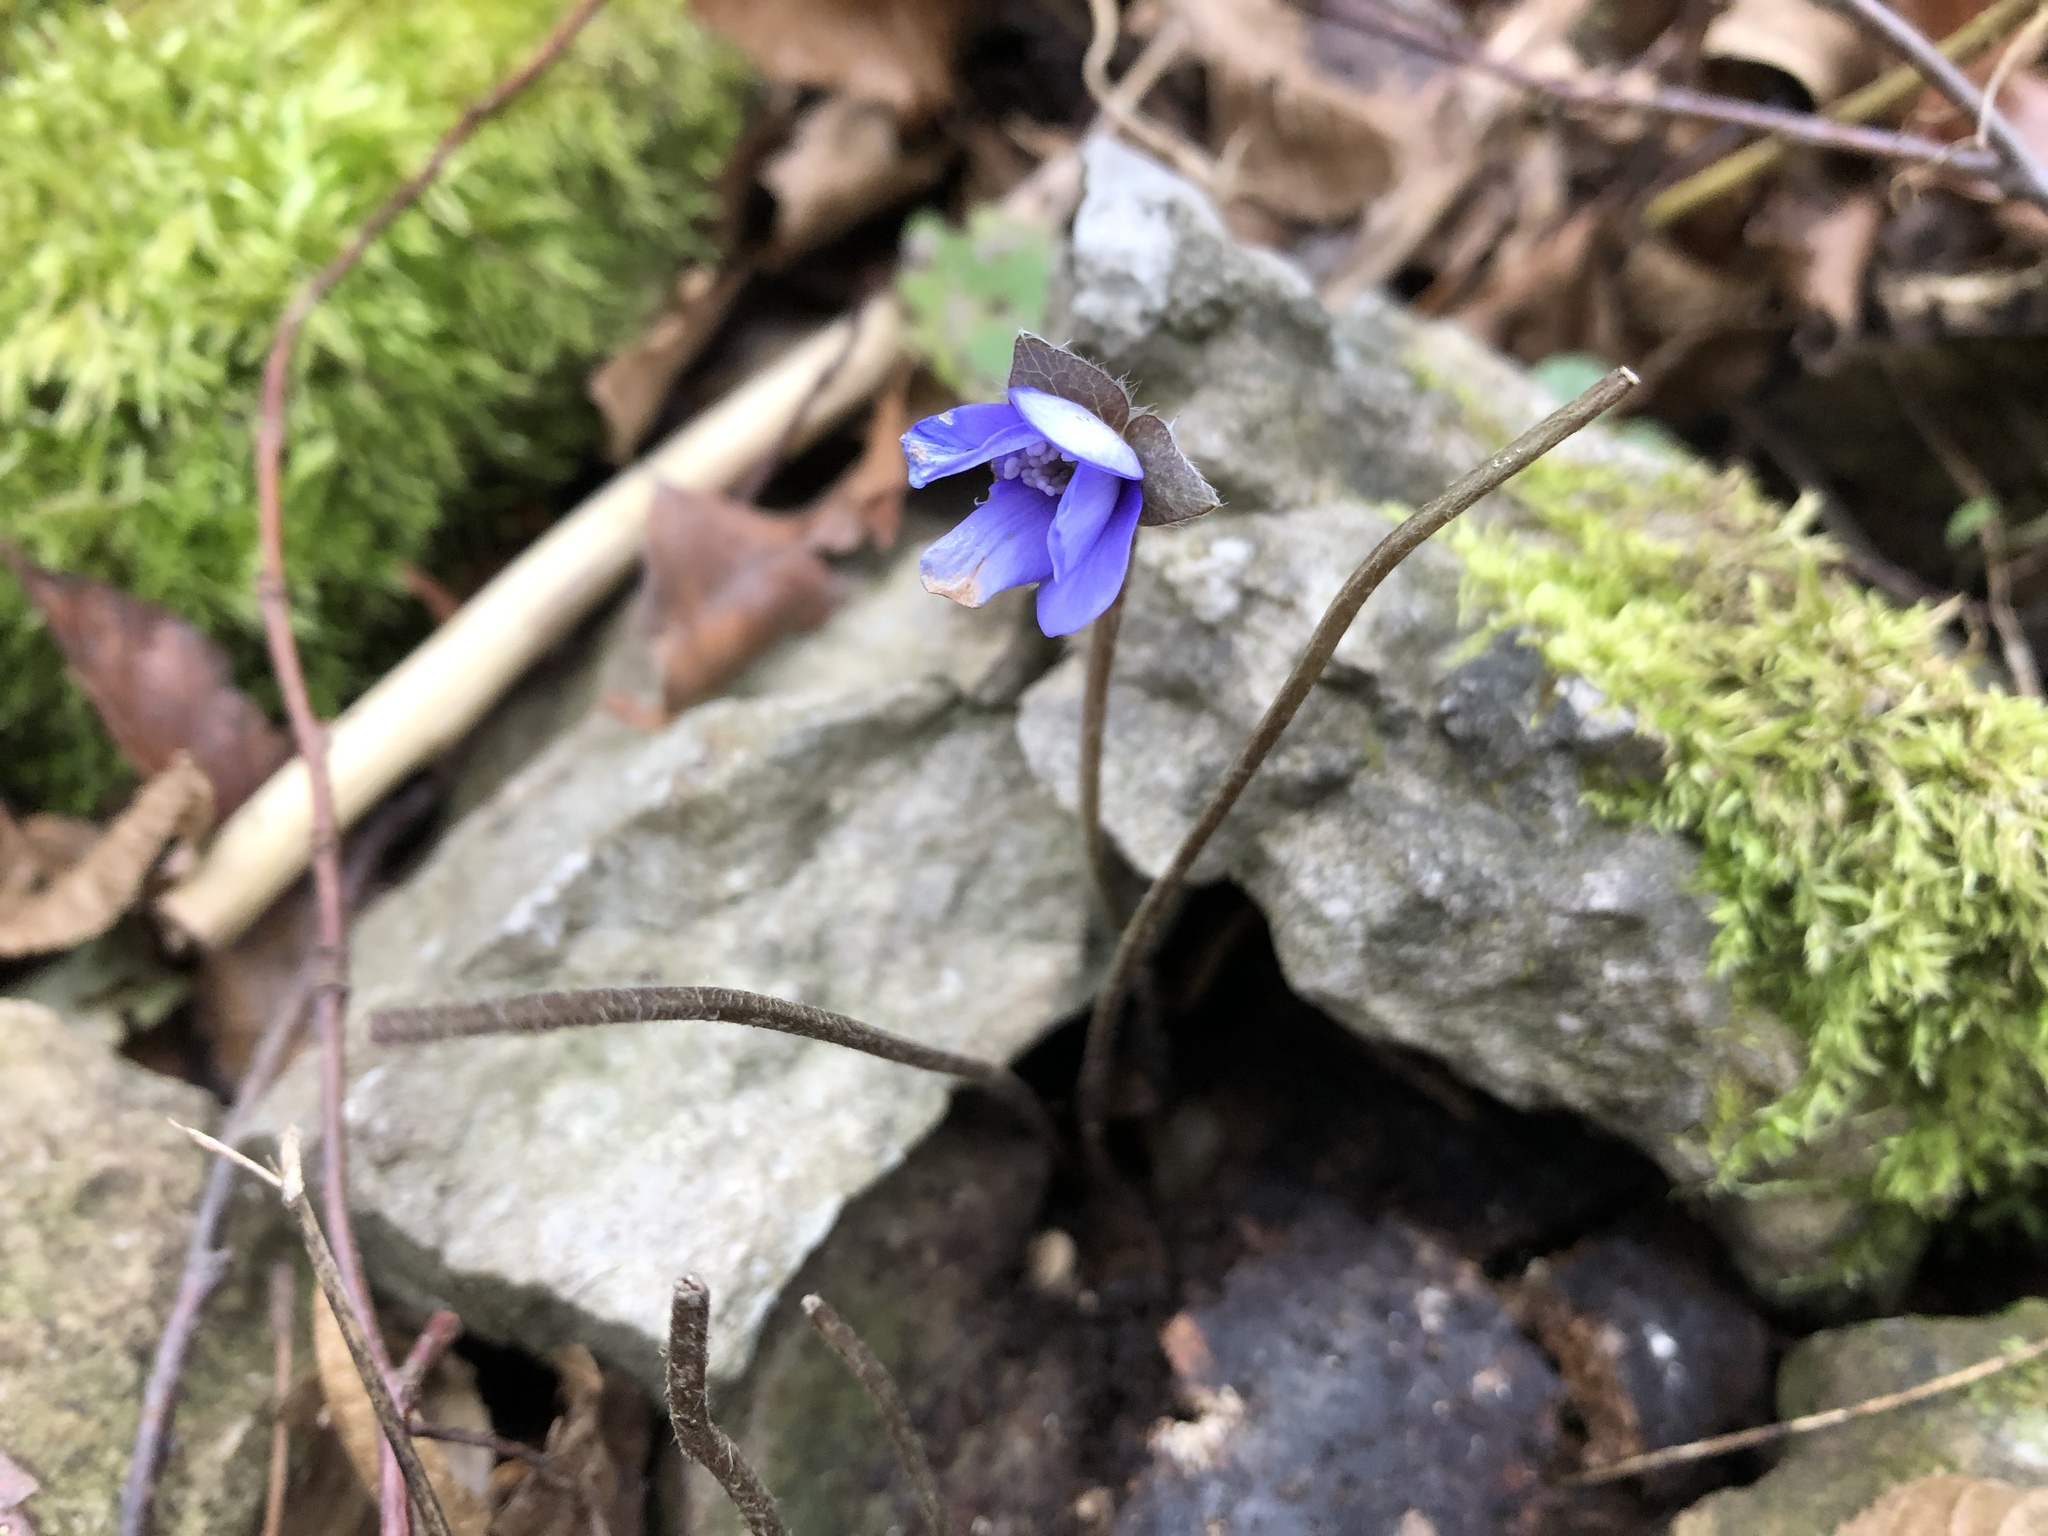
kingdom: Plantae
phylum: Tracheophyta
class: Magnoliopsida
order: Ranunculales
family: Ranunculaceae
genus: Hepatica
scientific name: Hepatica nobilis
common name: Liverleaf
